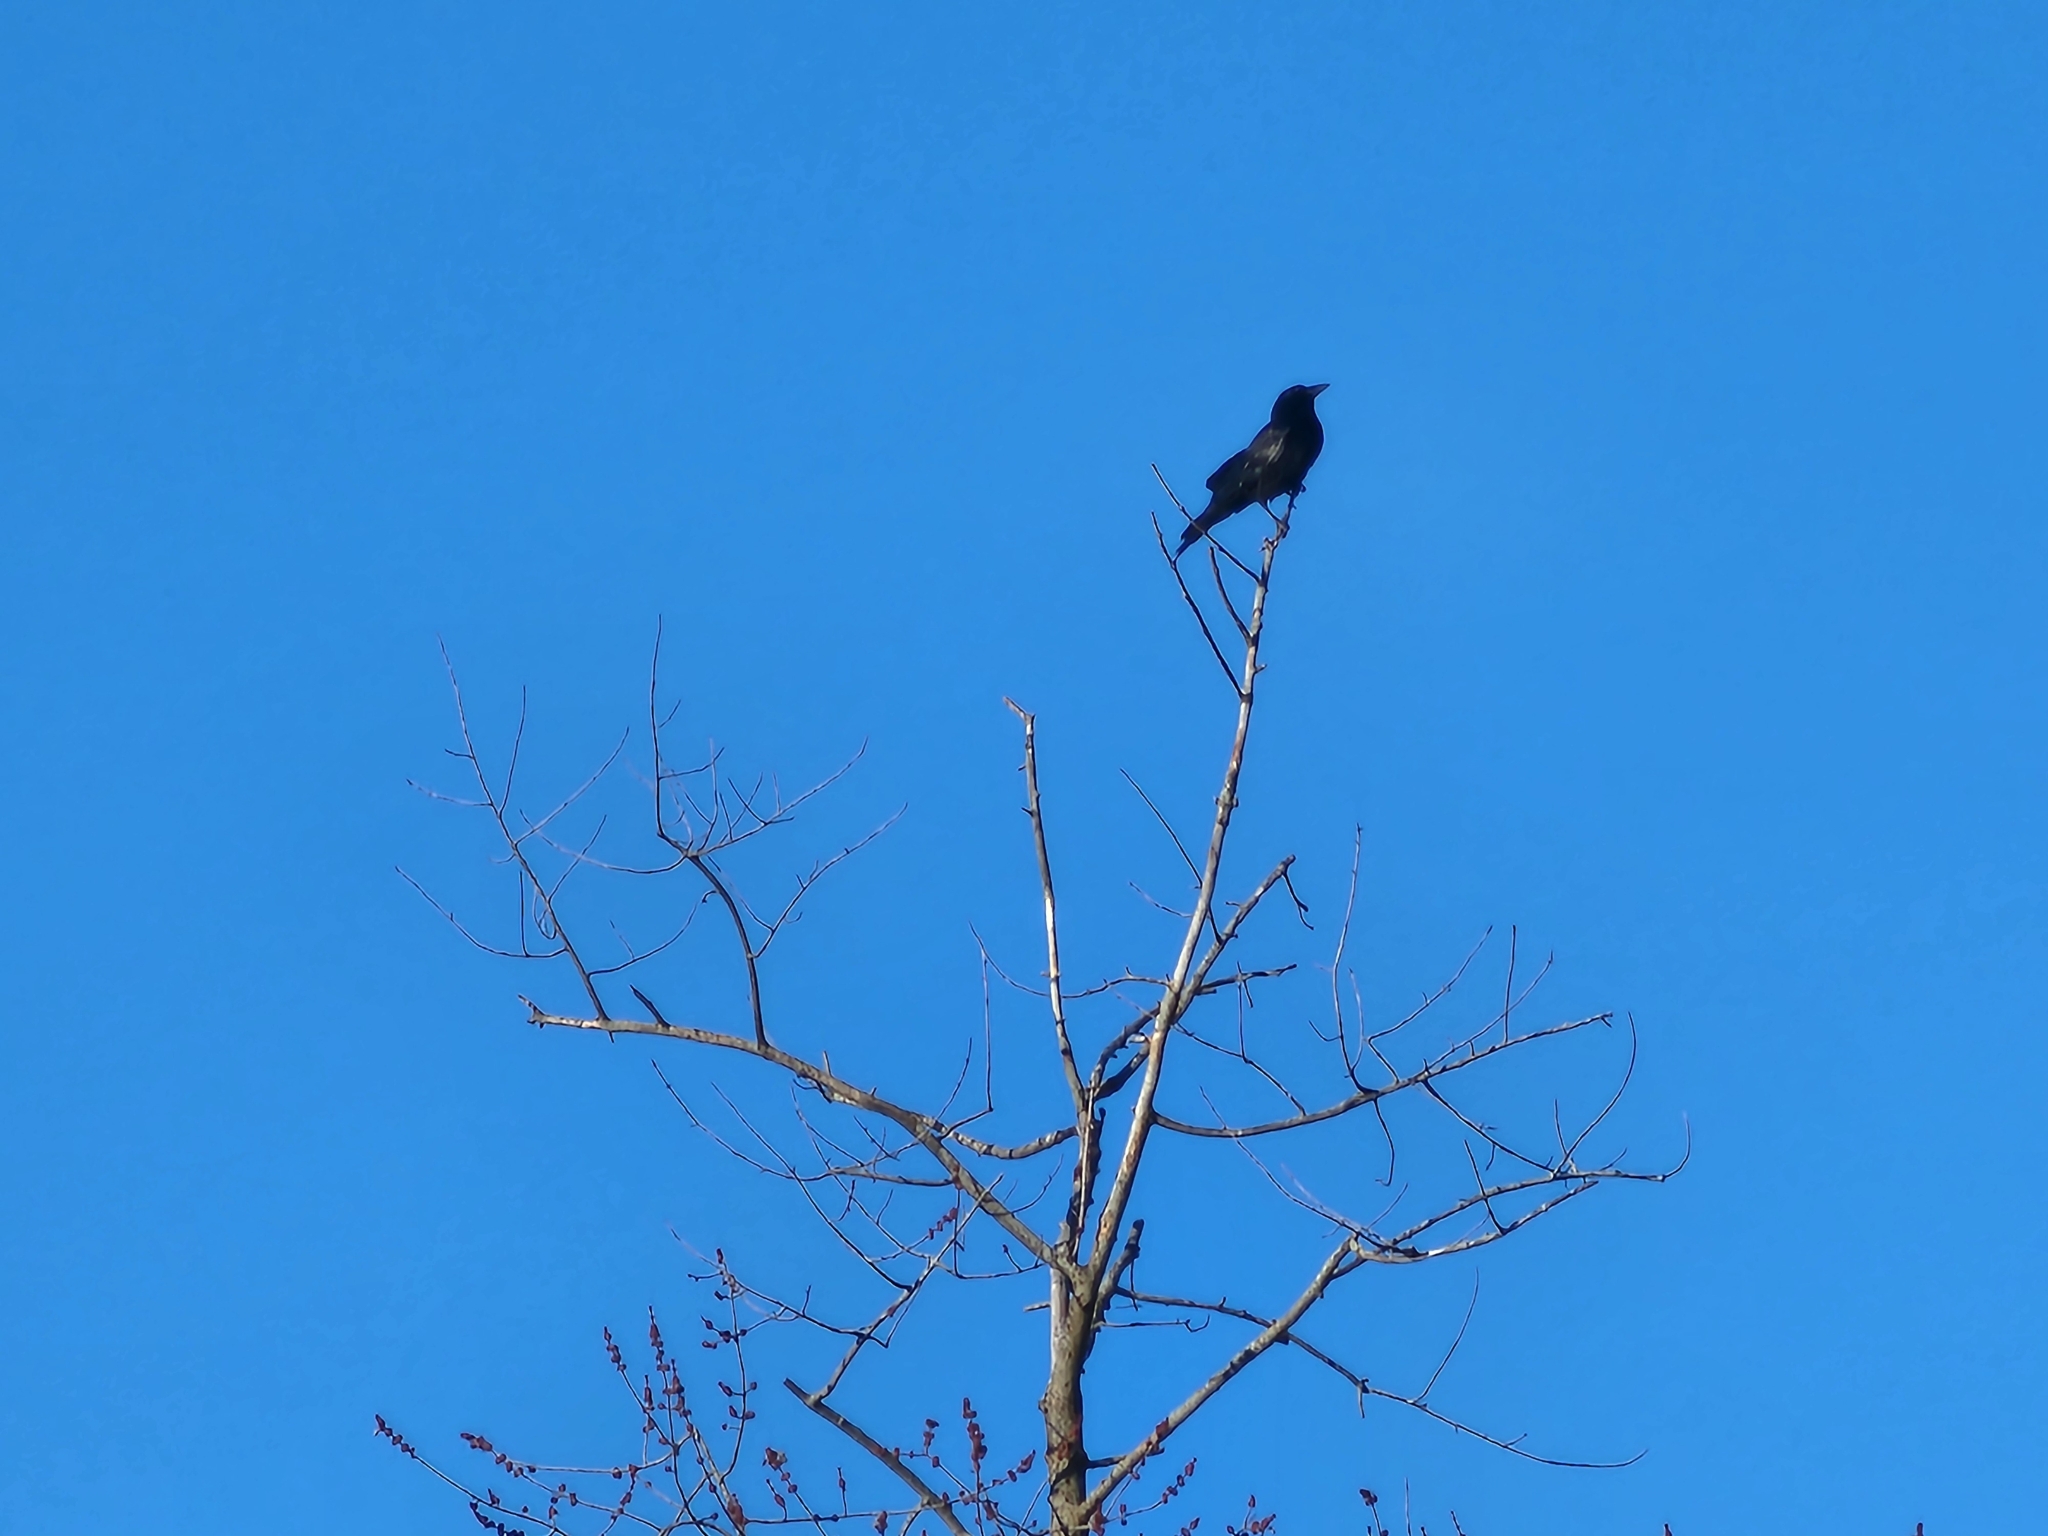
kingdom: Animalia
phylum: Chordata
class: Aves
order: Passeriformes
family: Corvidae
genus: Corvus
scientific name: Corvus brachyrhynchos
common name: American crow
